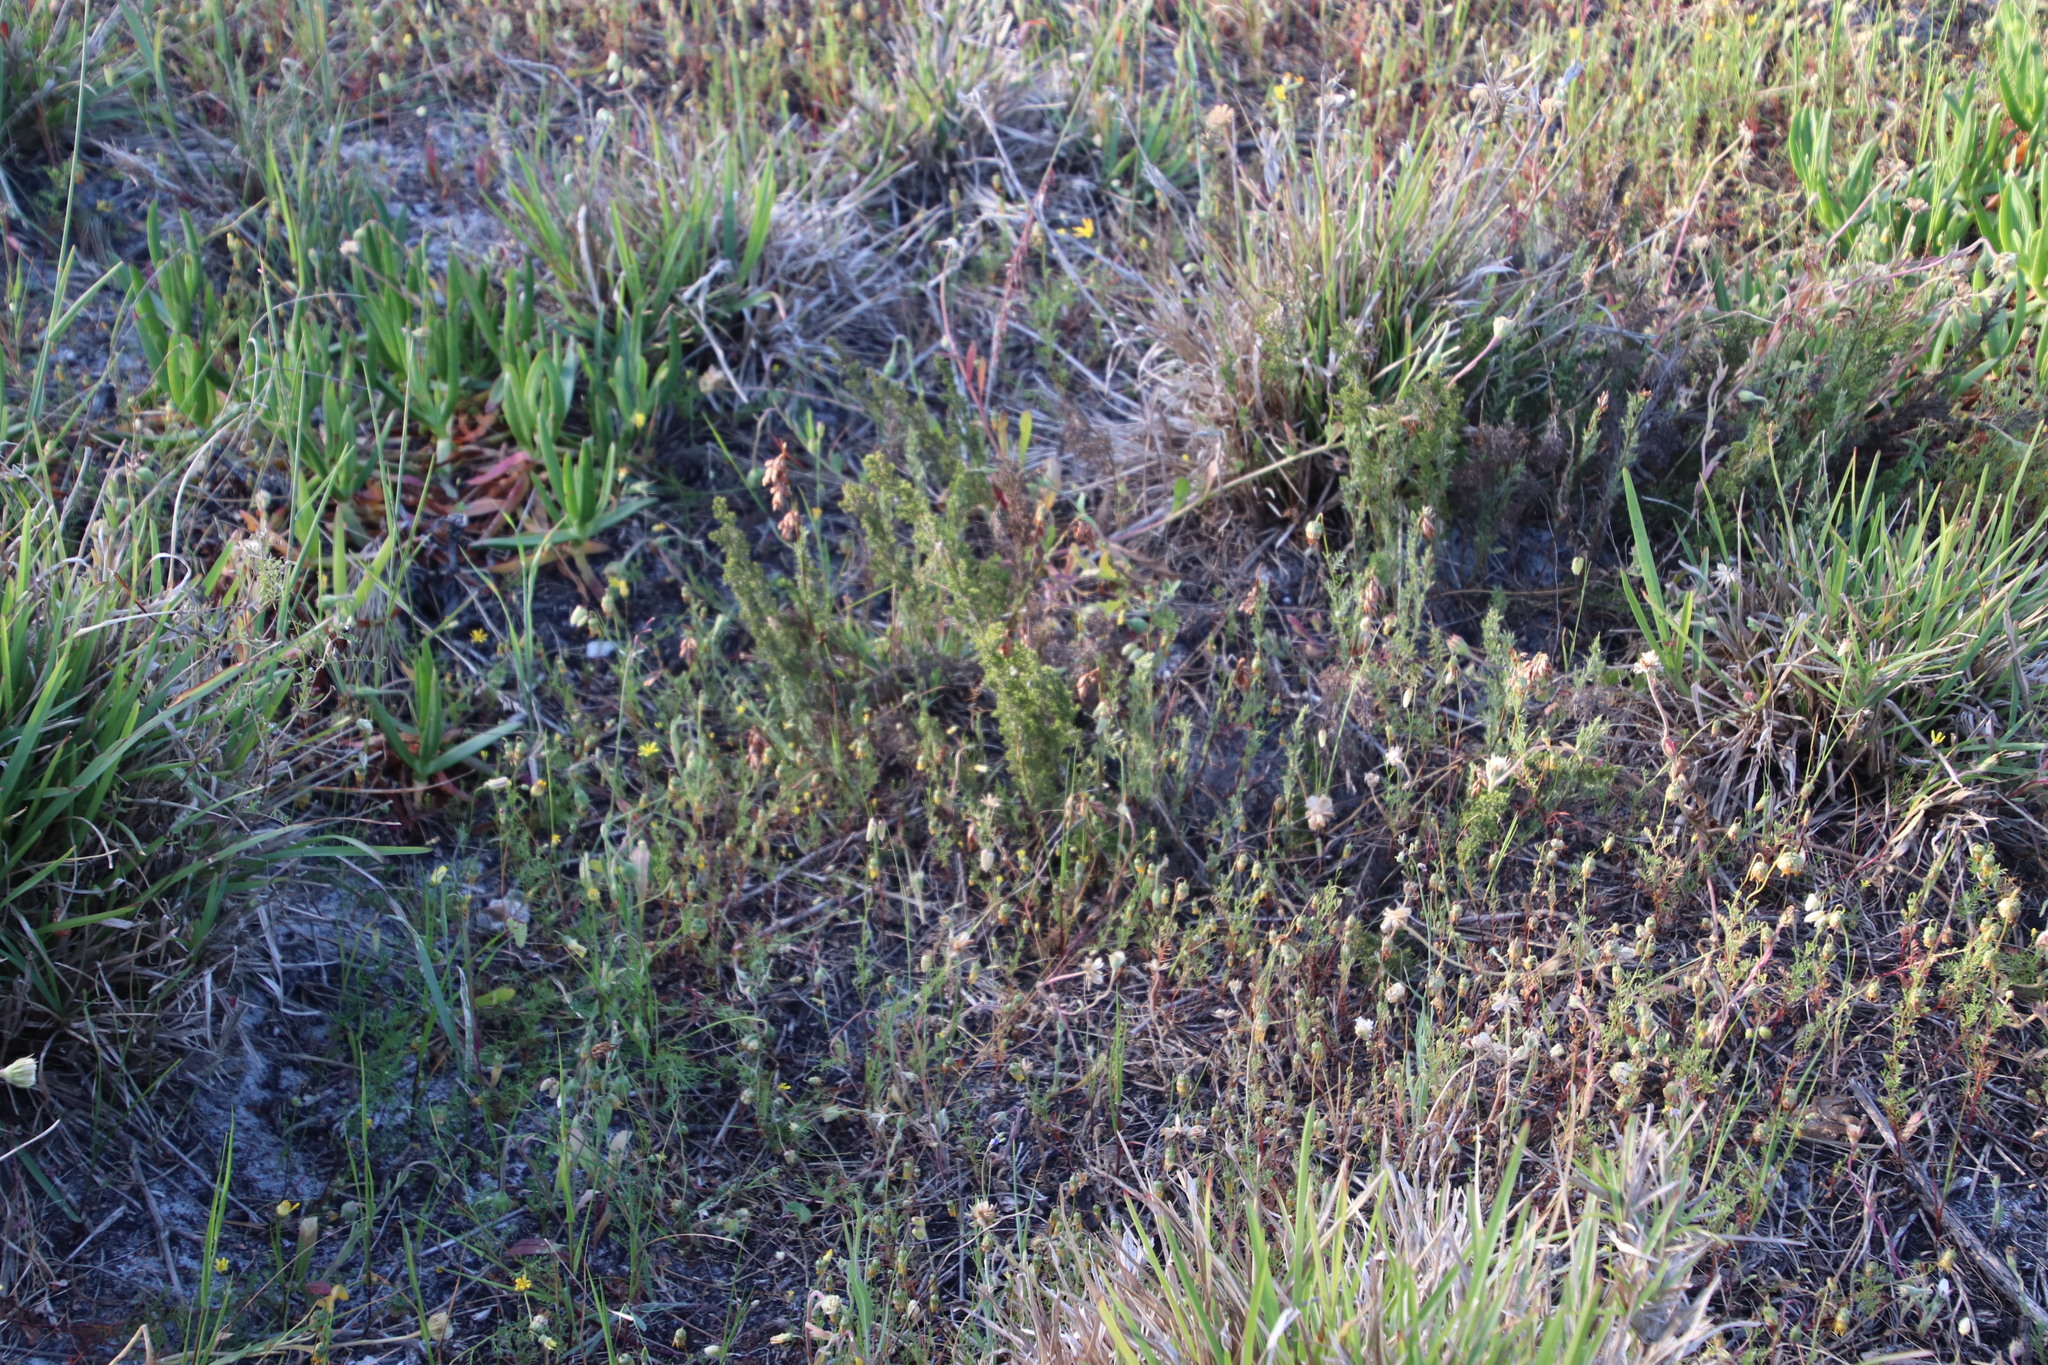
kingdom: Plantae
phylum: Tracheophyta
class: Liliopsida
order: Poales
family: Restionaceae
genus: Thamnochortus
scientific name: Thamnochortus fruticosus
